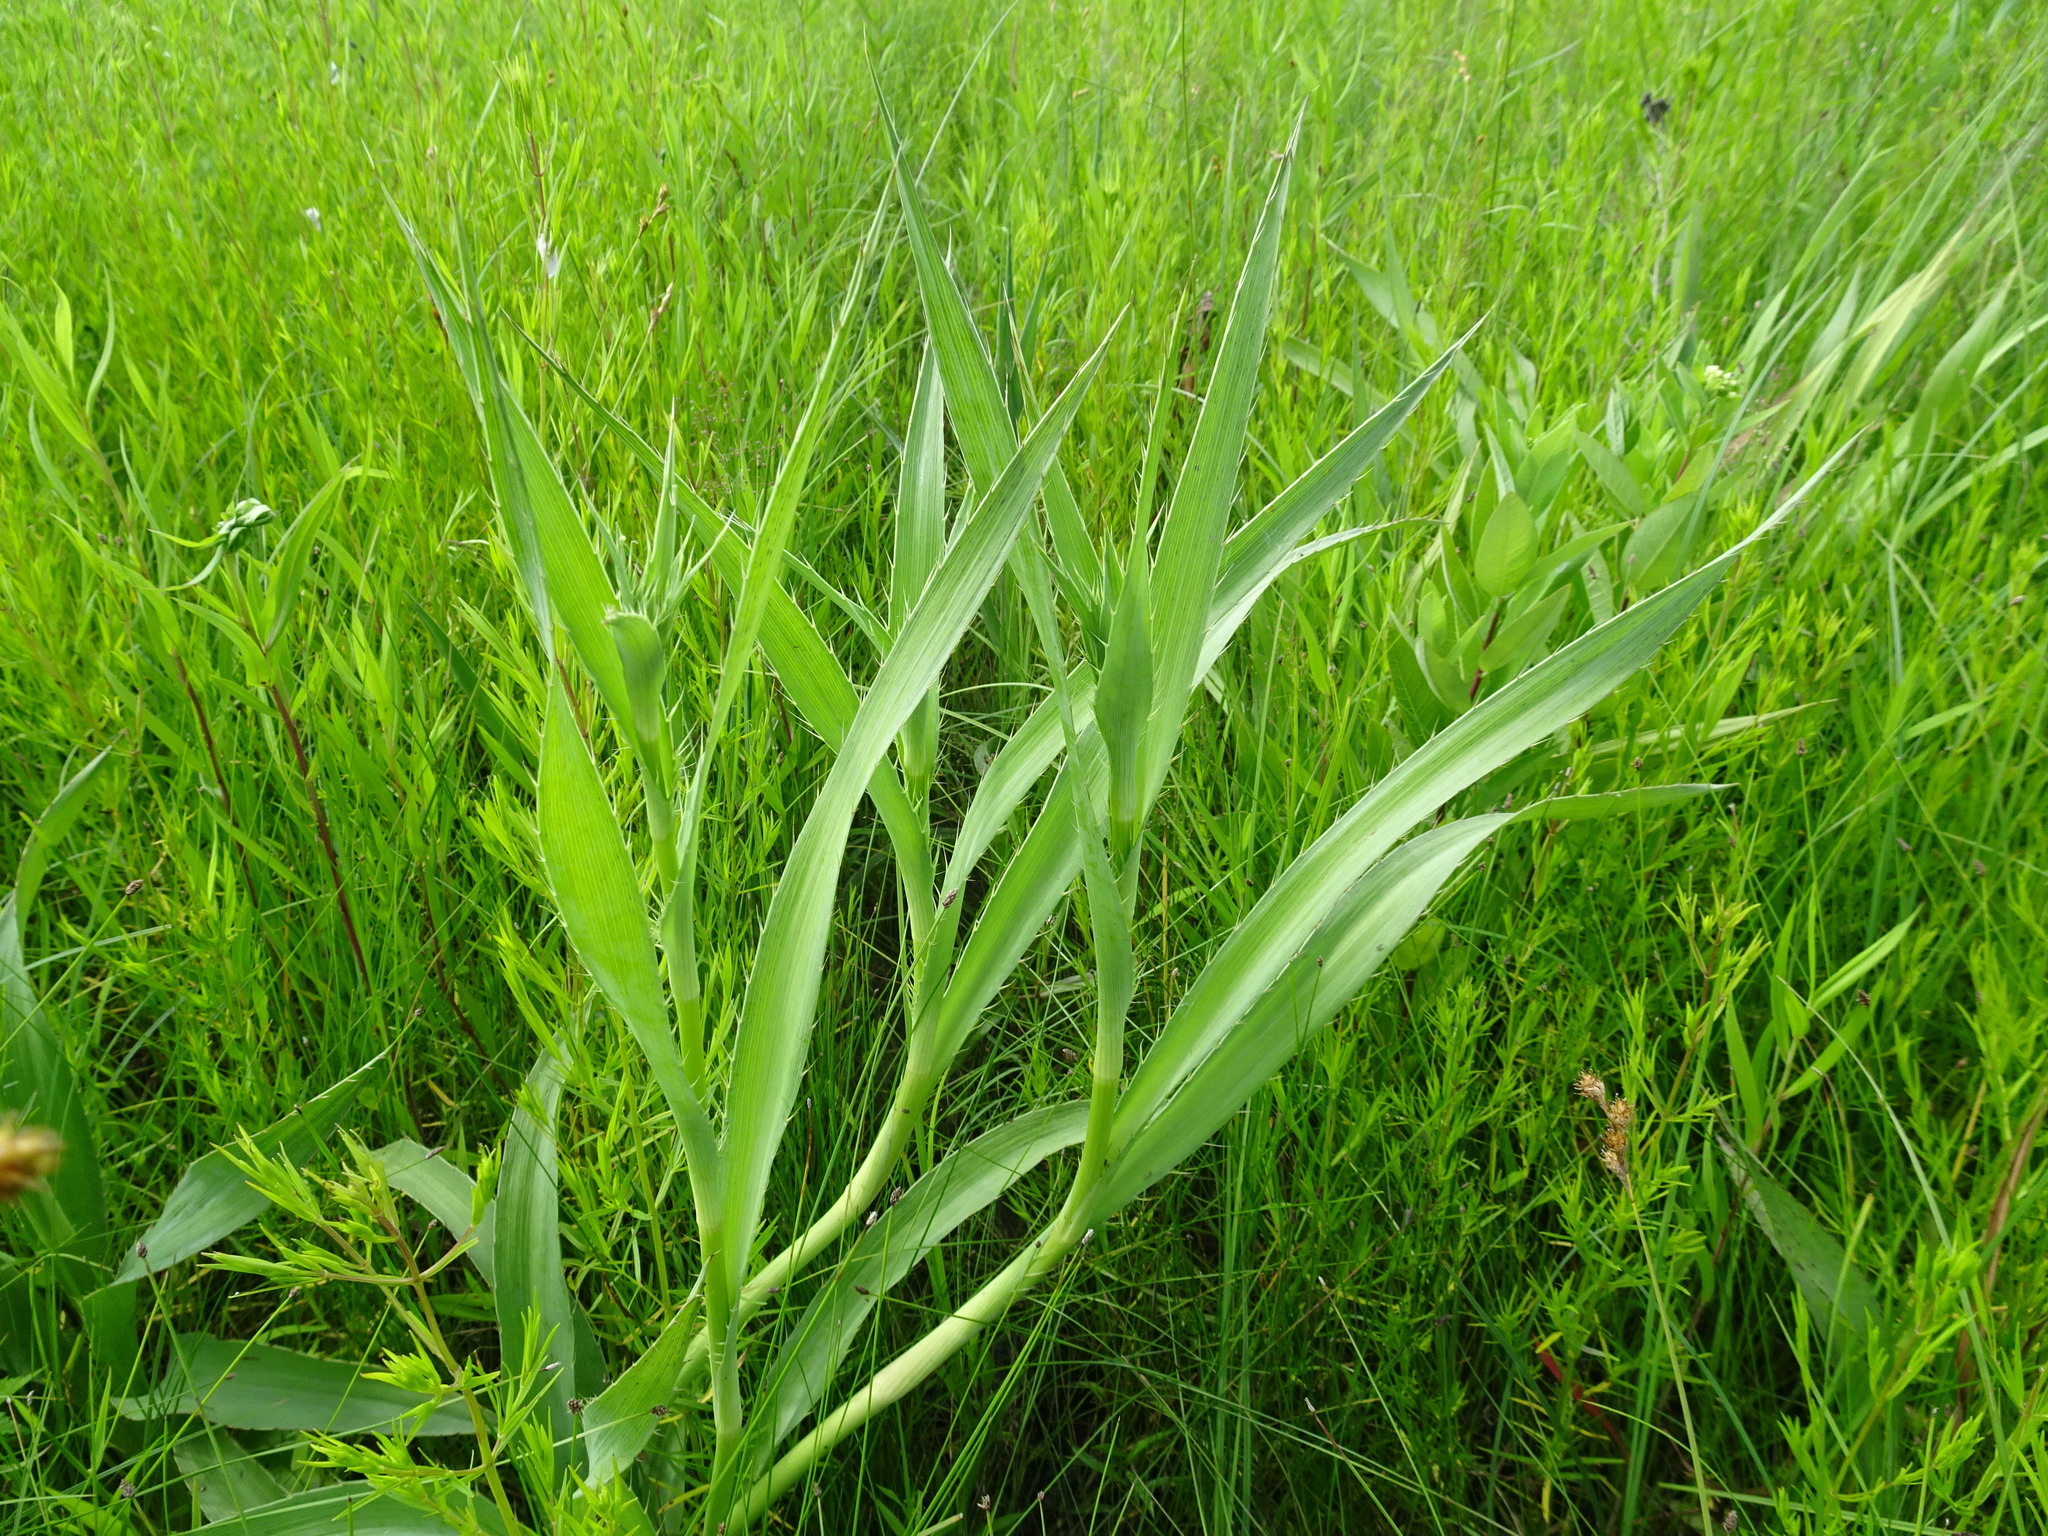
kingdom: Plantae
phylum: Tracheophyta
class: Magnoliopsida
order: Apiales
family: Apiaceae
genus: Eryngium
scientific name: Eryngium yuccifolium
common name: Button eryngo
